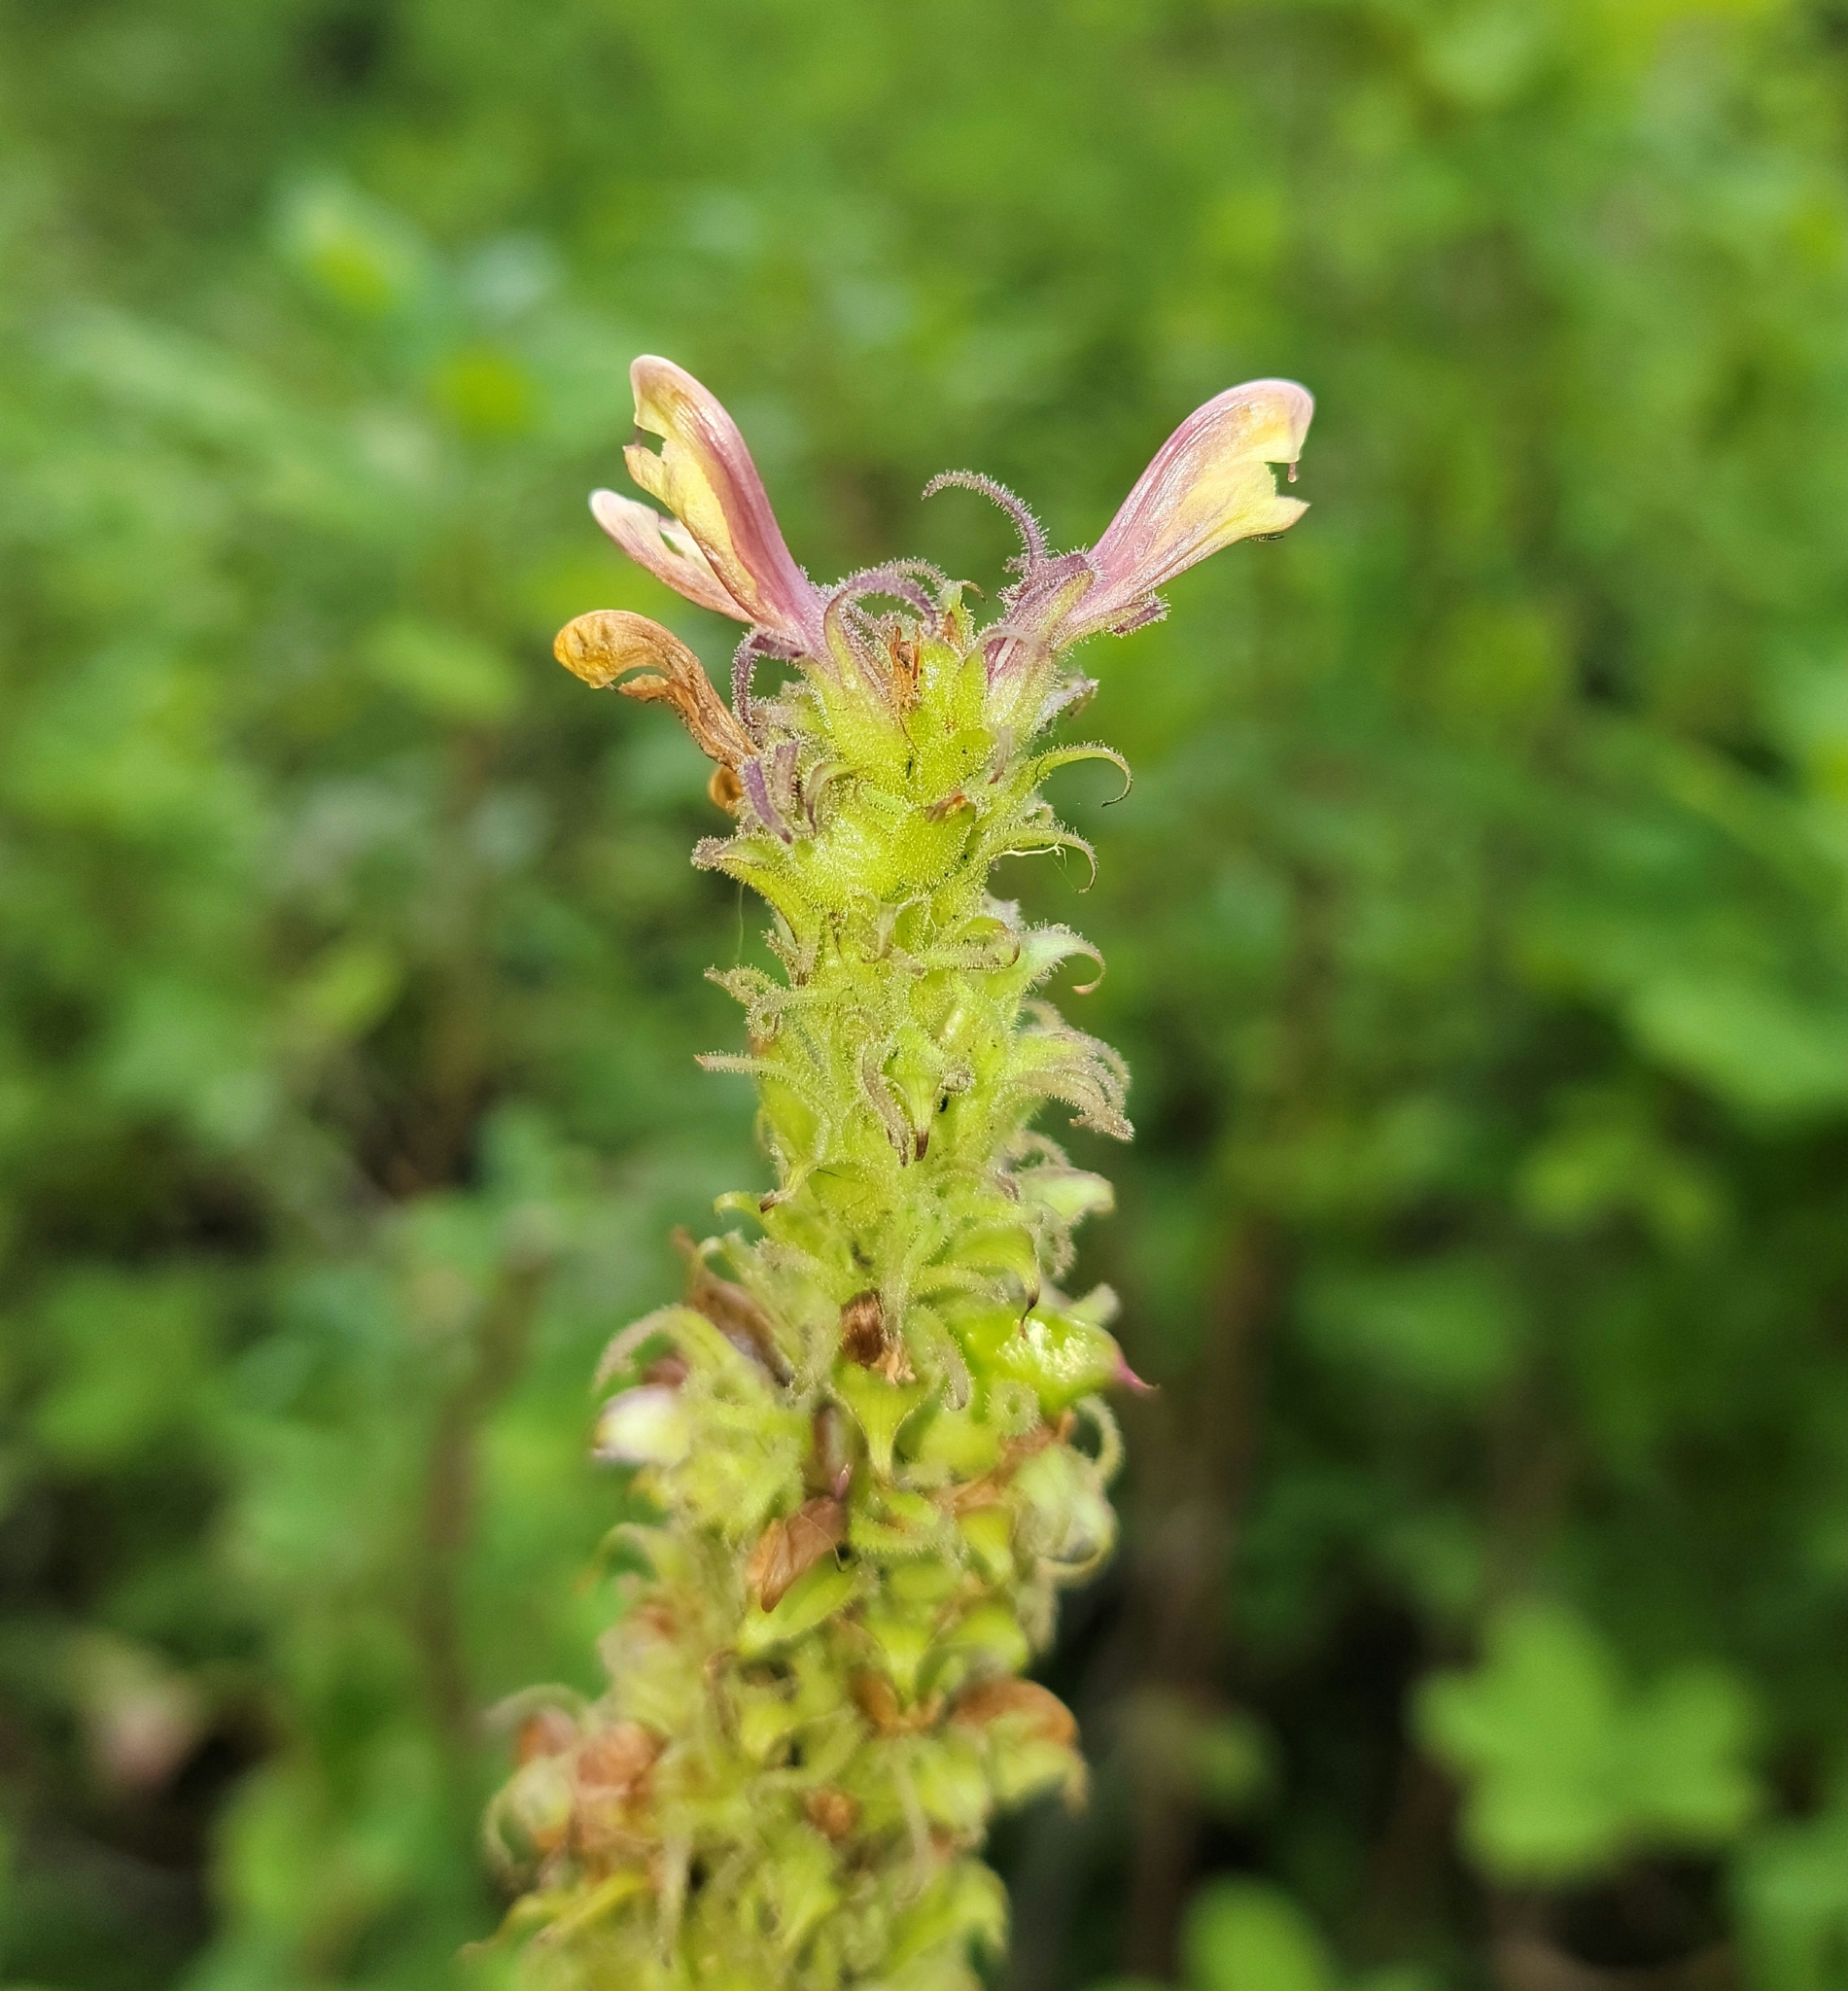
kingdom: Plantae
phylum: Tracheophyta
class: Magnoliopsida
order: Lamiales
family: Orobanchaceae
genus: Pedicularis
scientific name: Pedicularis bracteosa
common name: Bracted lousewort
